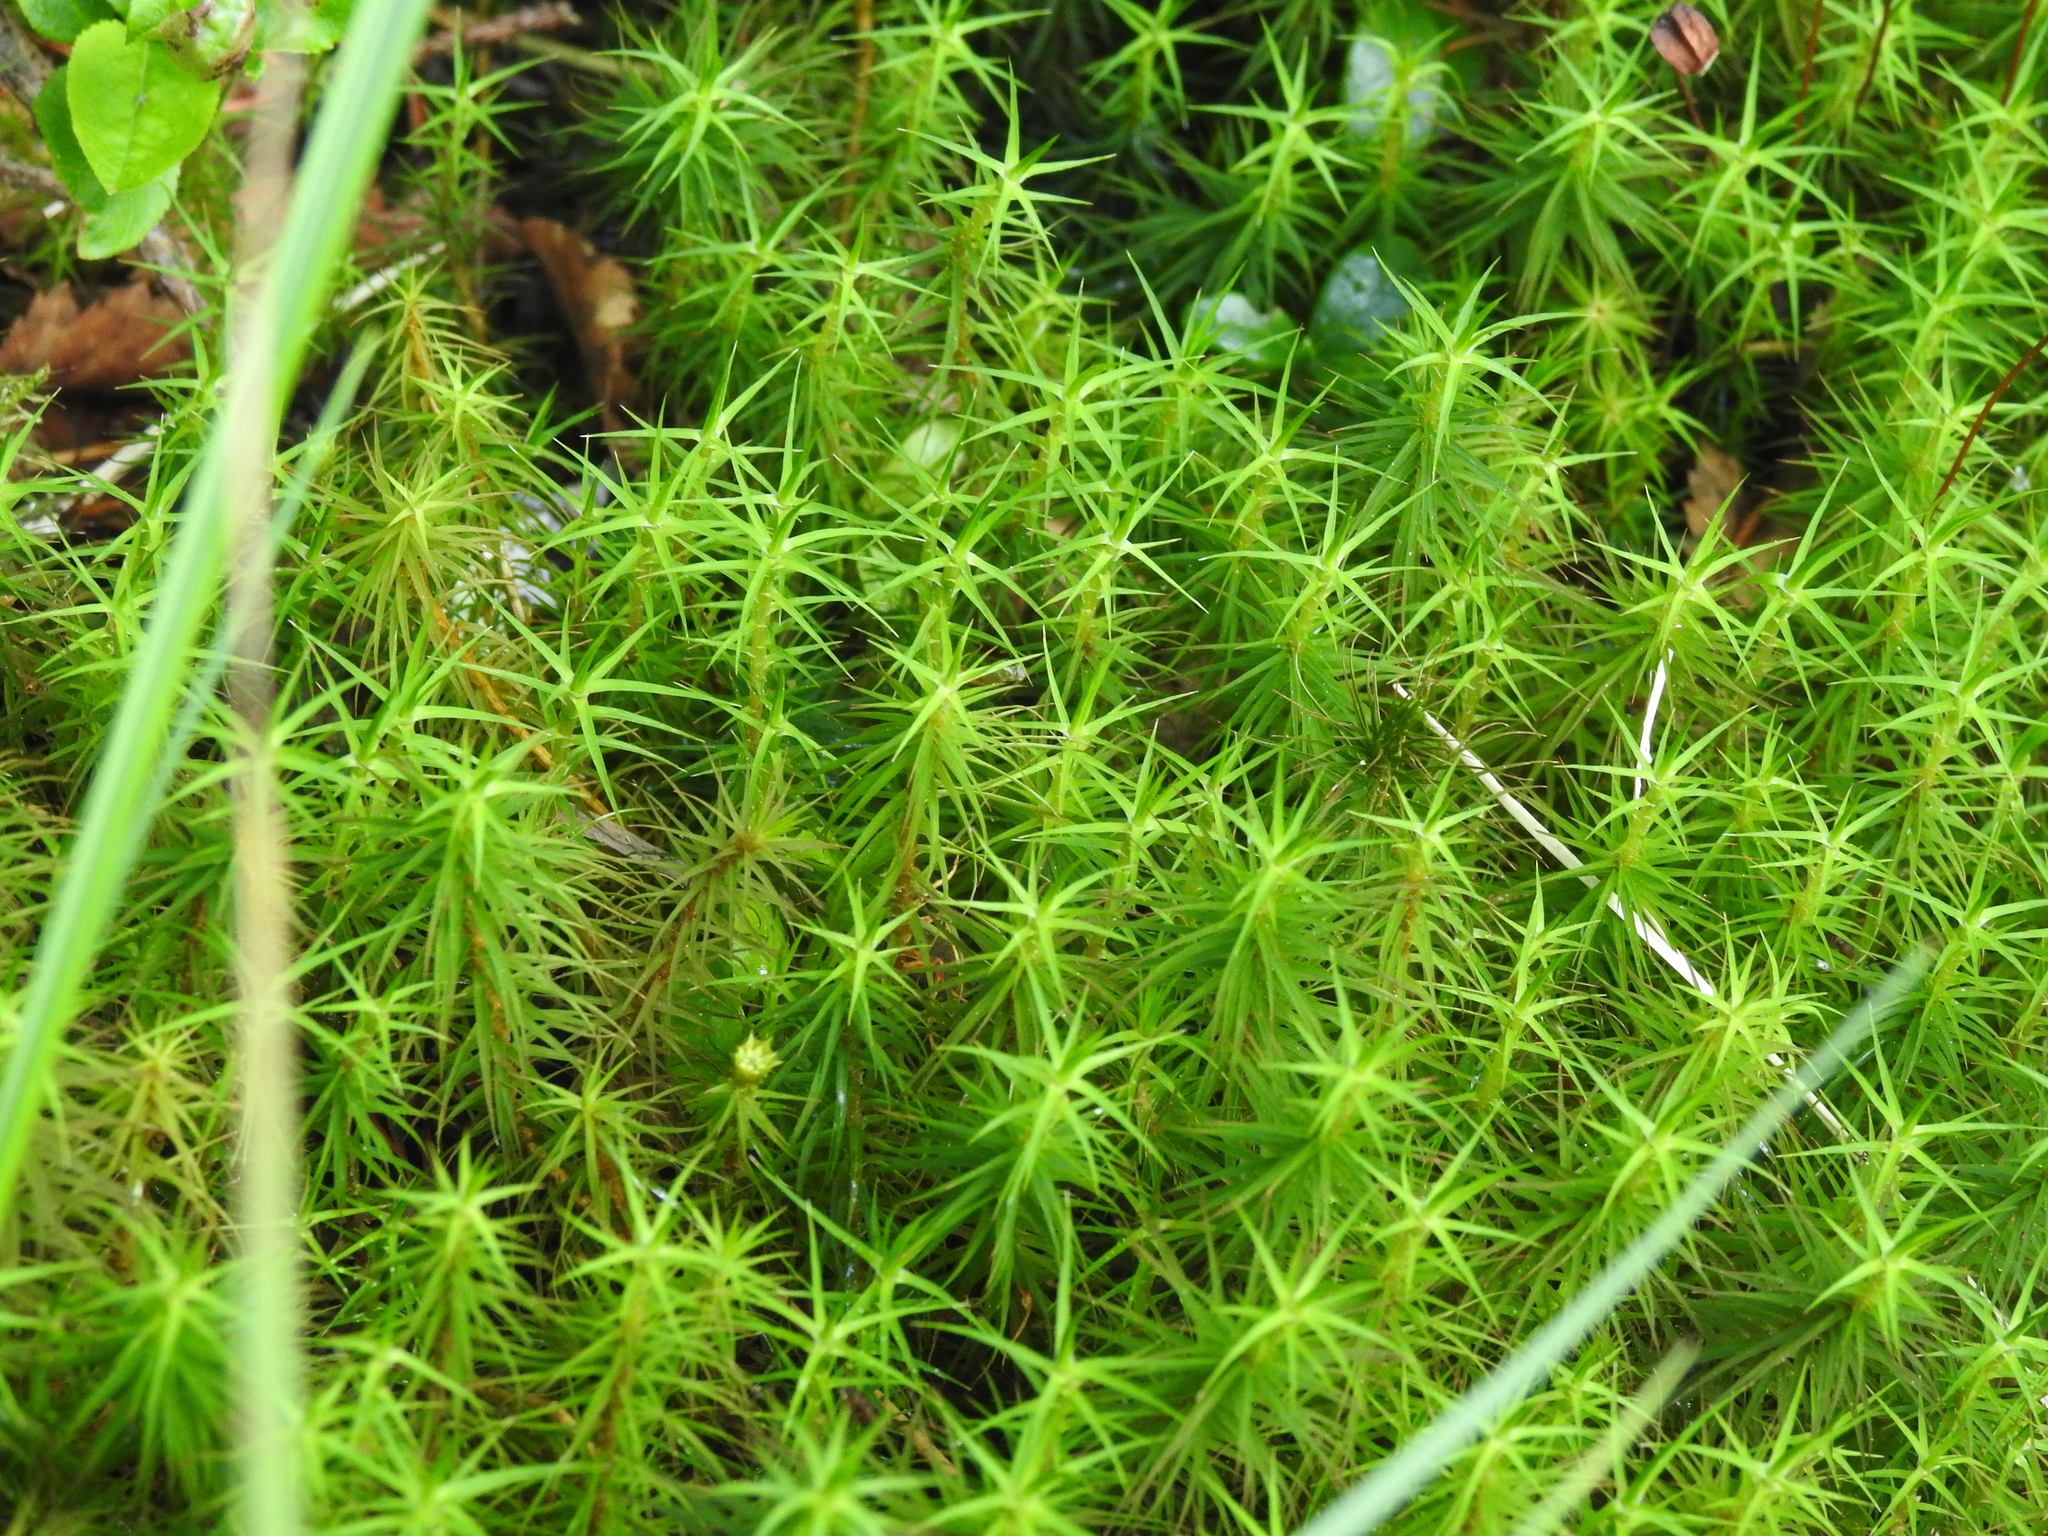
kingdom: Plantae
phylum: Bryophyta
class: Polytrichopsida
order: Polytrichales
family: Polytrichaceae
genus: Polytrichum
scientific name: Polytrichum commune
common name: Common haircap
